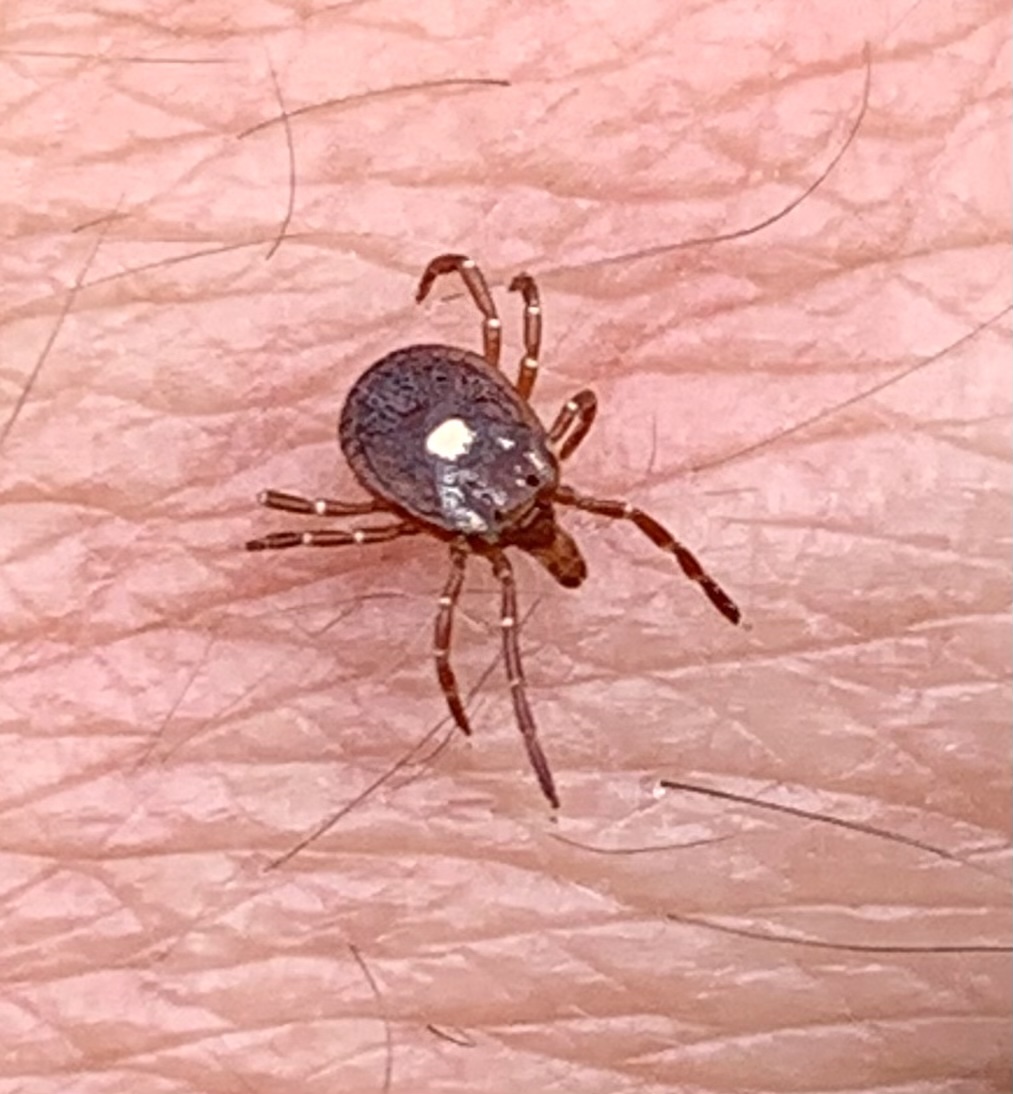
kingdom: Animalia
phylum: Arthropoda
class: Arachnida
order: Ixodida
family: Ixodidae
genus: Amblyomma
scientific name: Amblyomma americanum
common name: Lone star tick
